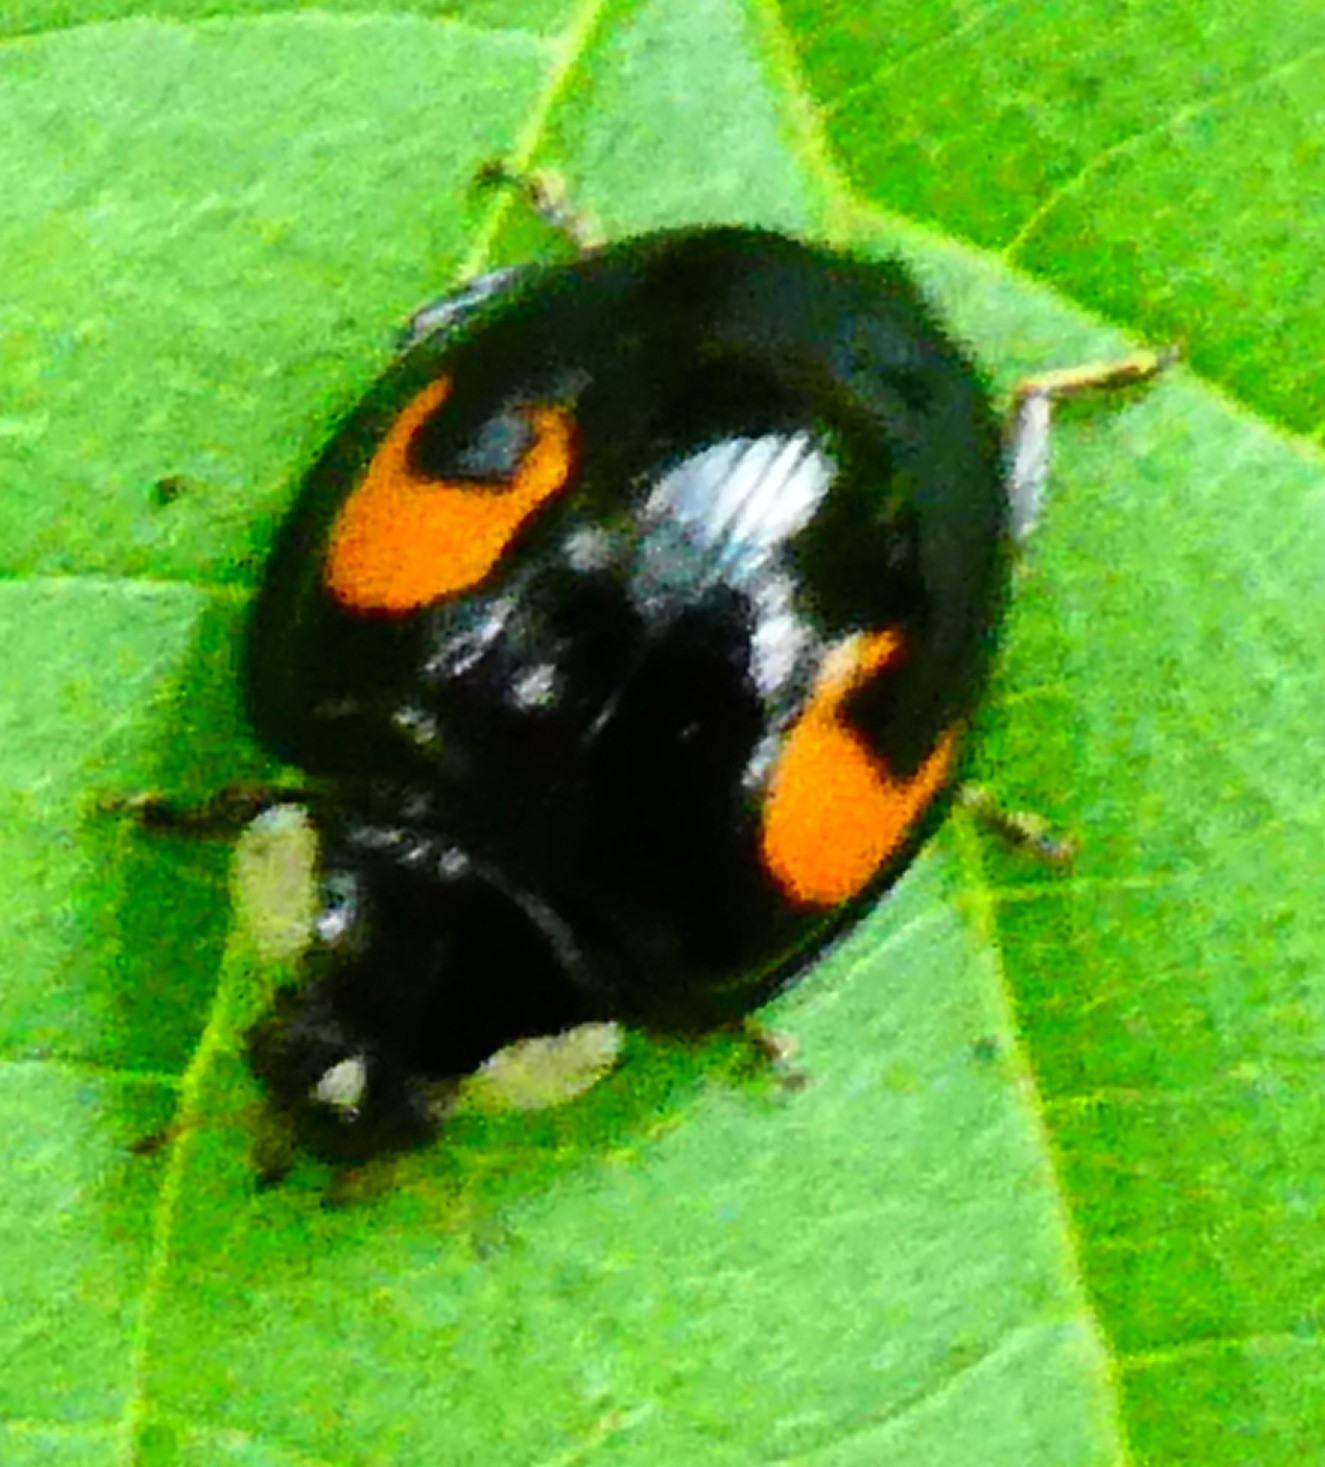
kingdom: Animalia
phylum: Arthropoda
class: Insecta
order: Coleoptera
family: Coccinellidae
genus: Harmonia
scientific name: Harmonia axyridis
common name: Harlequin ladybird
